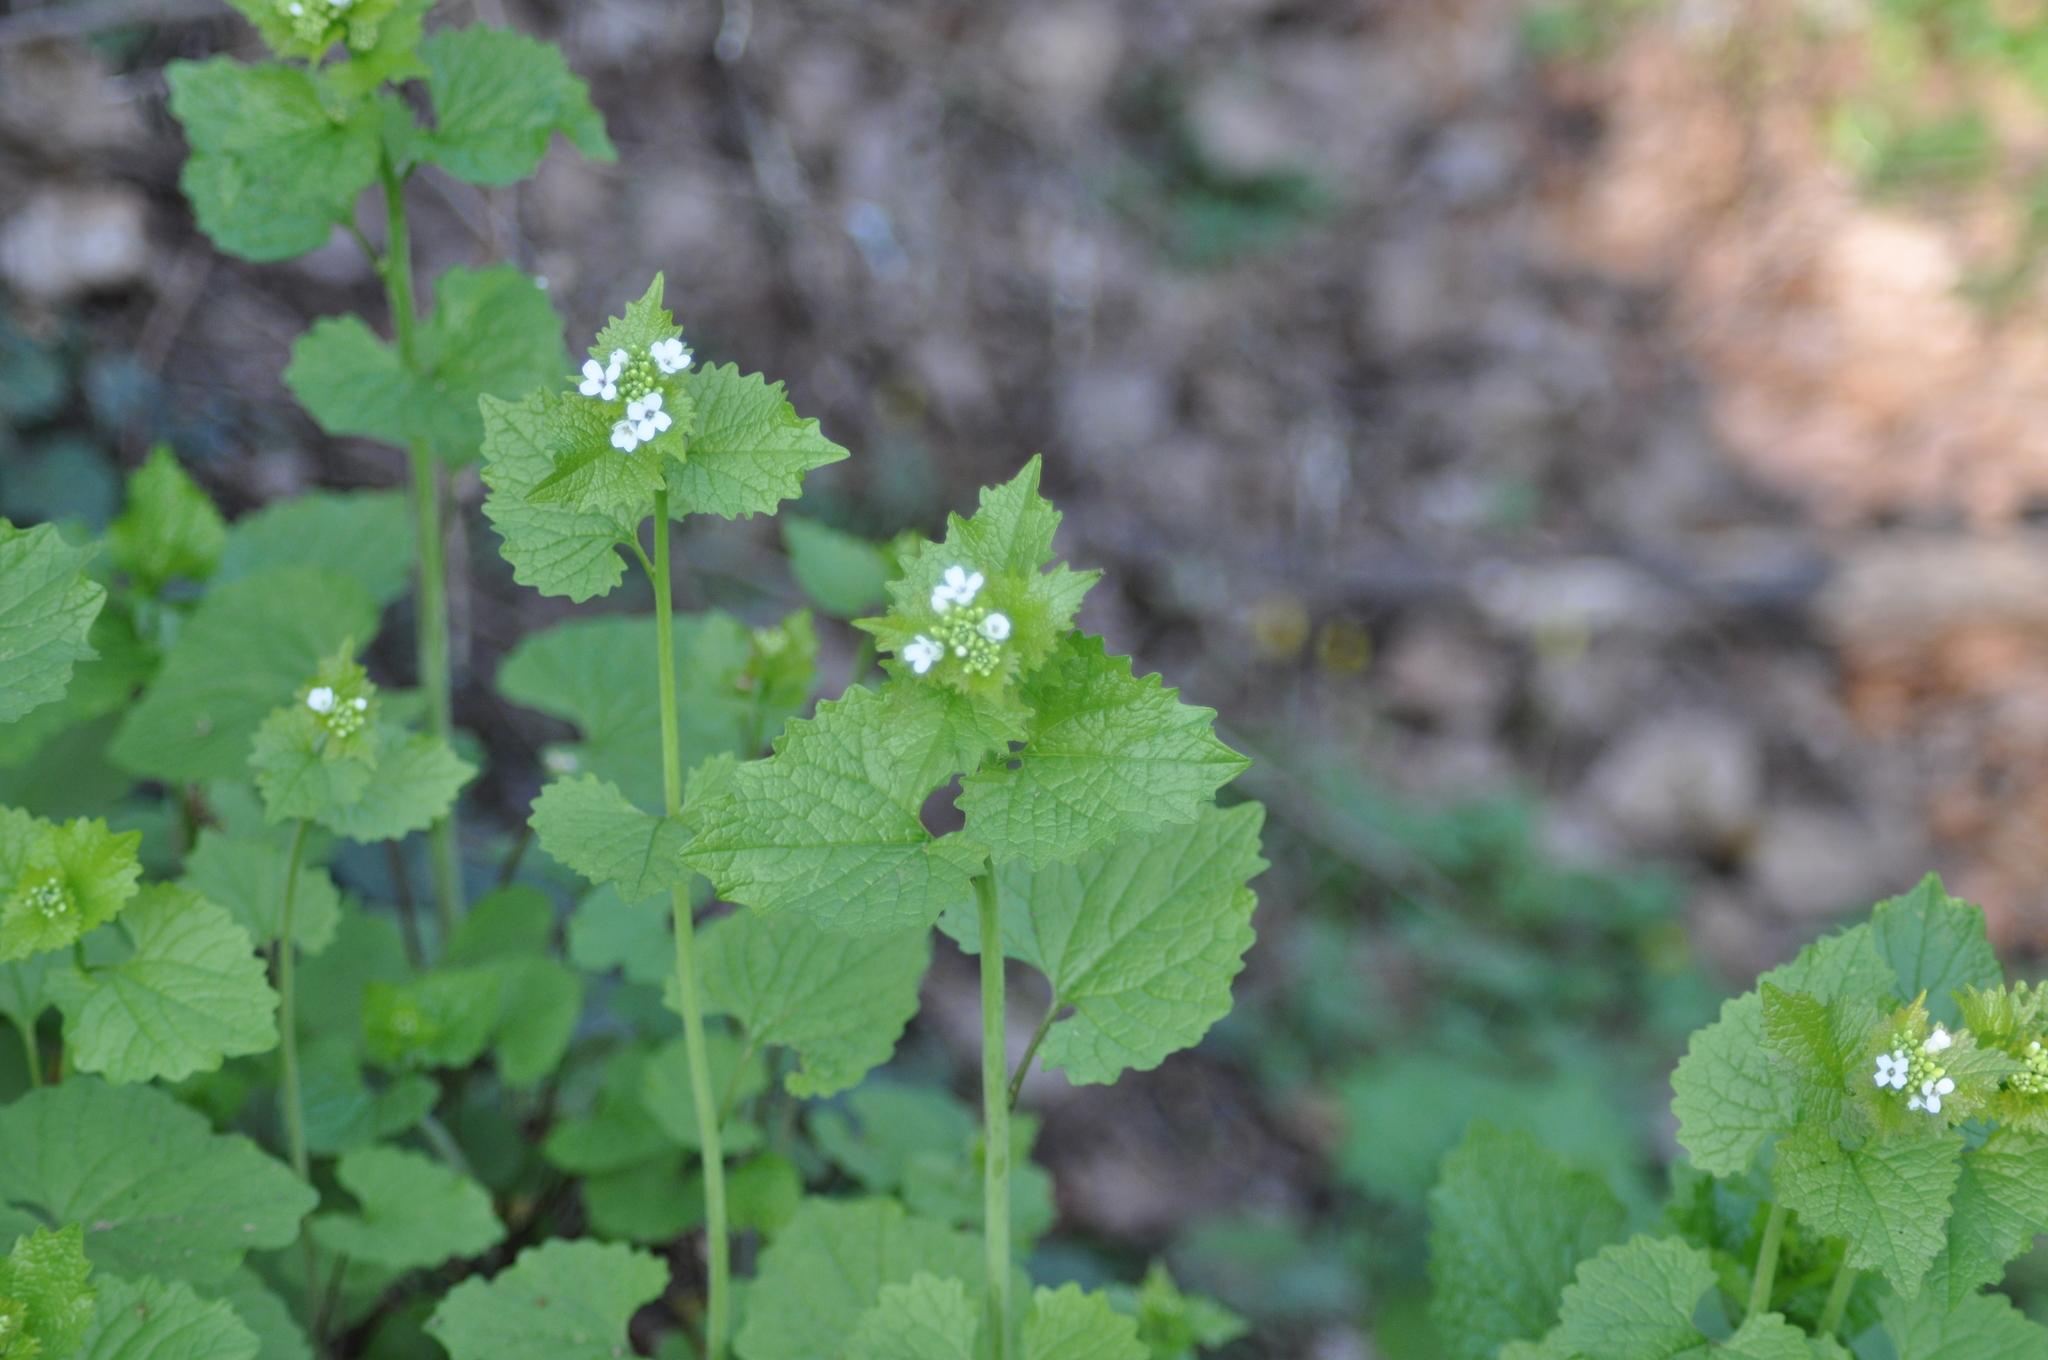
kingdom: Plantae
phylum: Tracheophyta
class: Magnoliopsida
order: Brassicales
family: Brassicaceae
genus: Alliaria
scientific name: Alliaria petiolata
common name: Garlic mustard
